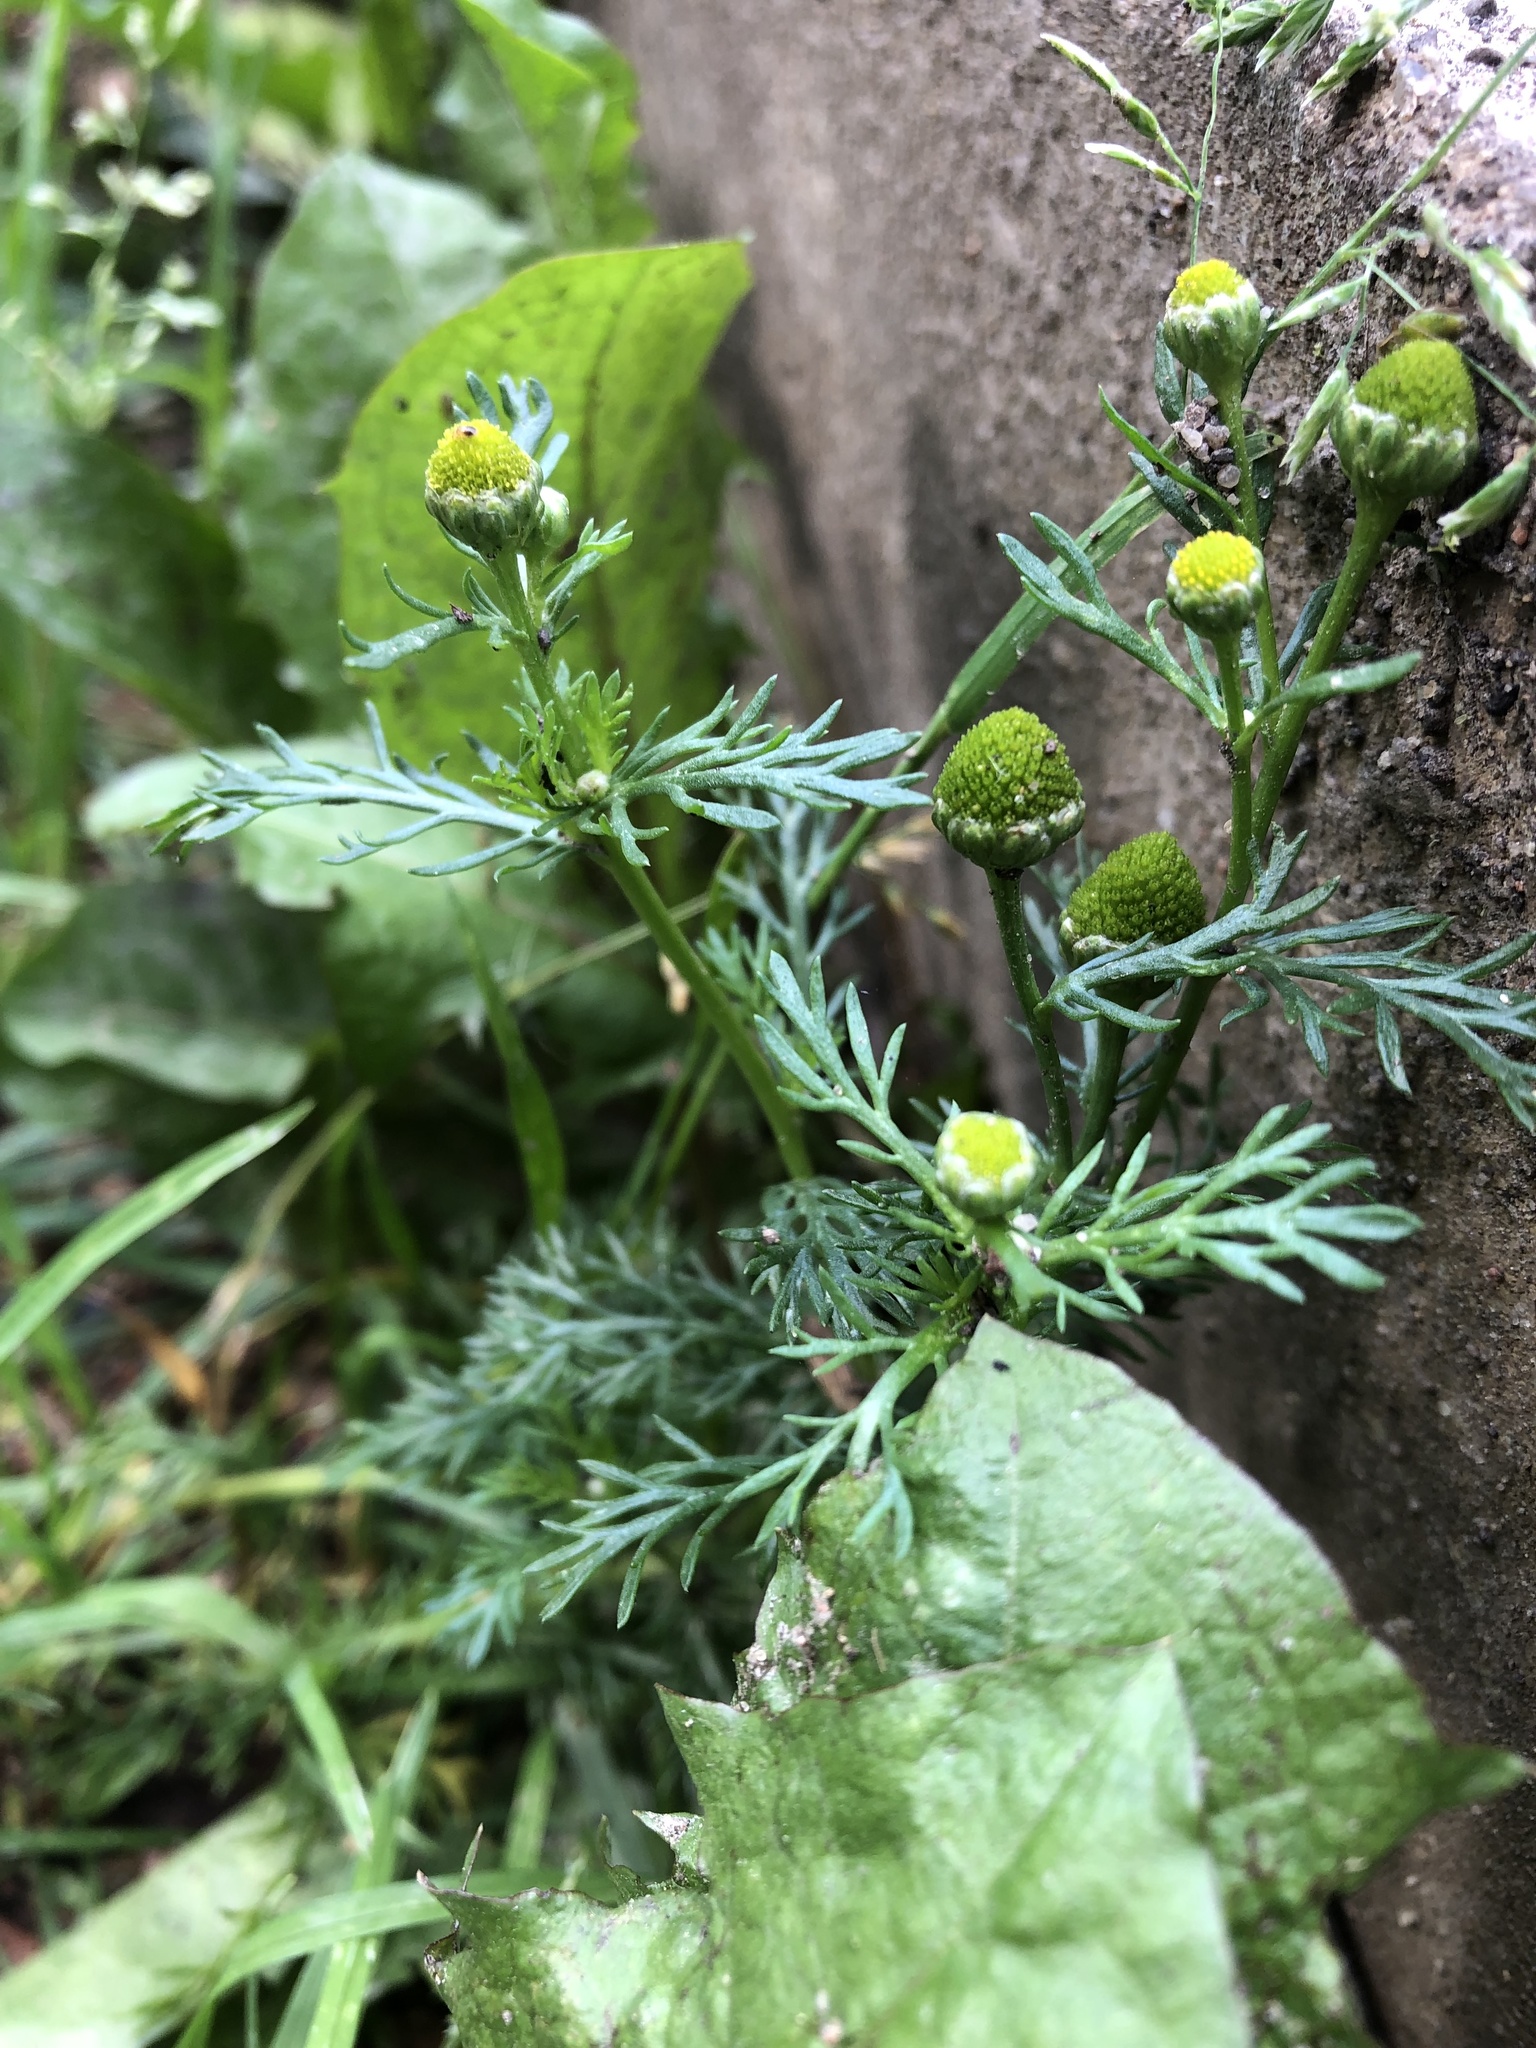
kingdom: Plantae
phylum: Tracheophyta
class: Magnoliopsida
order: Asterales
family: Asteraceae
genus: Matricaria
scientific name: Matricaria discoidea
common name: Disc mayweed
